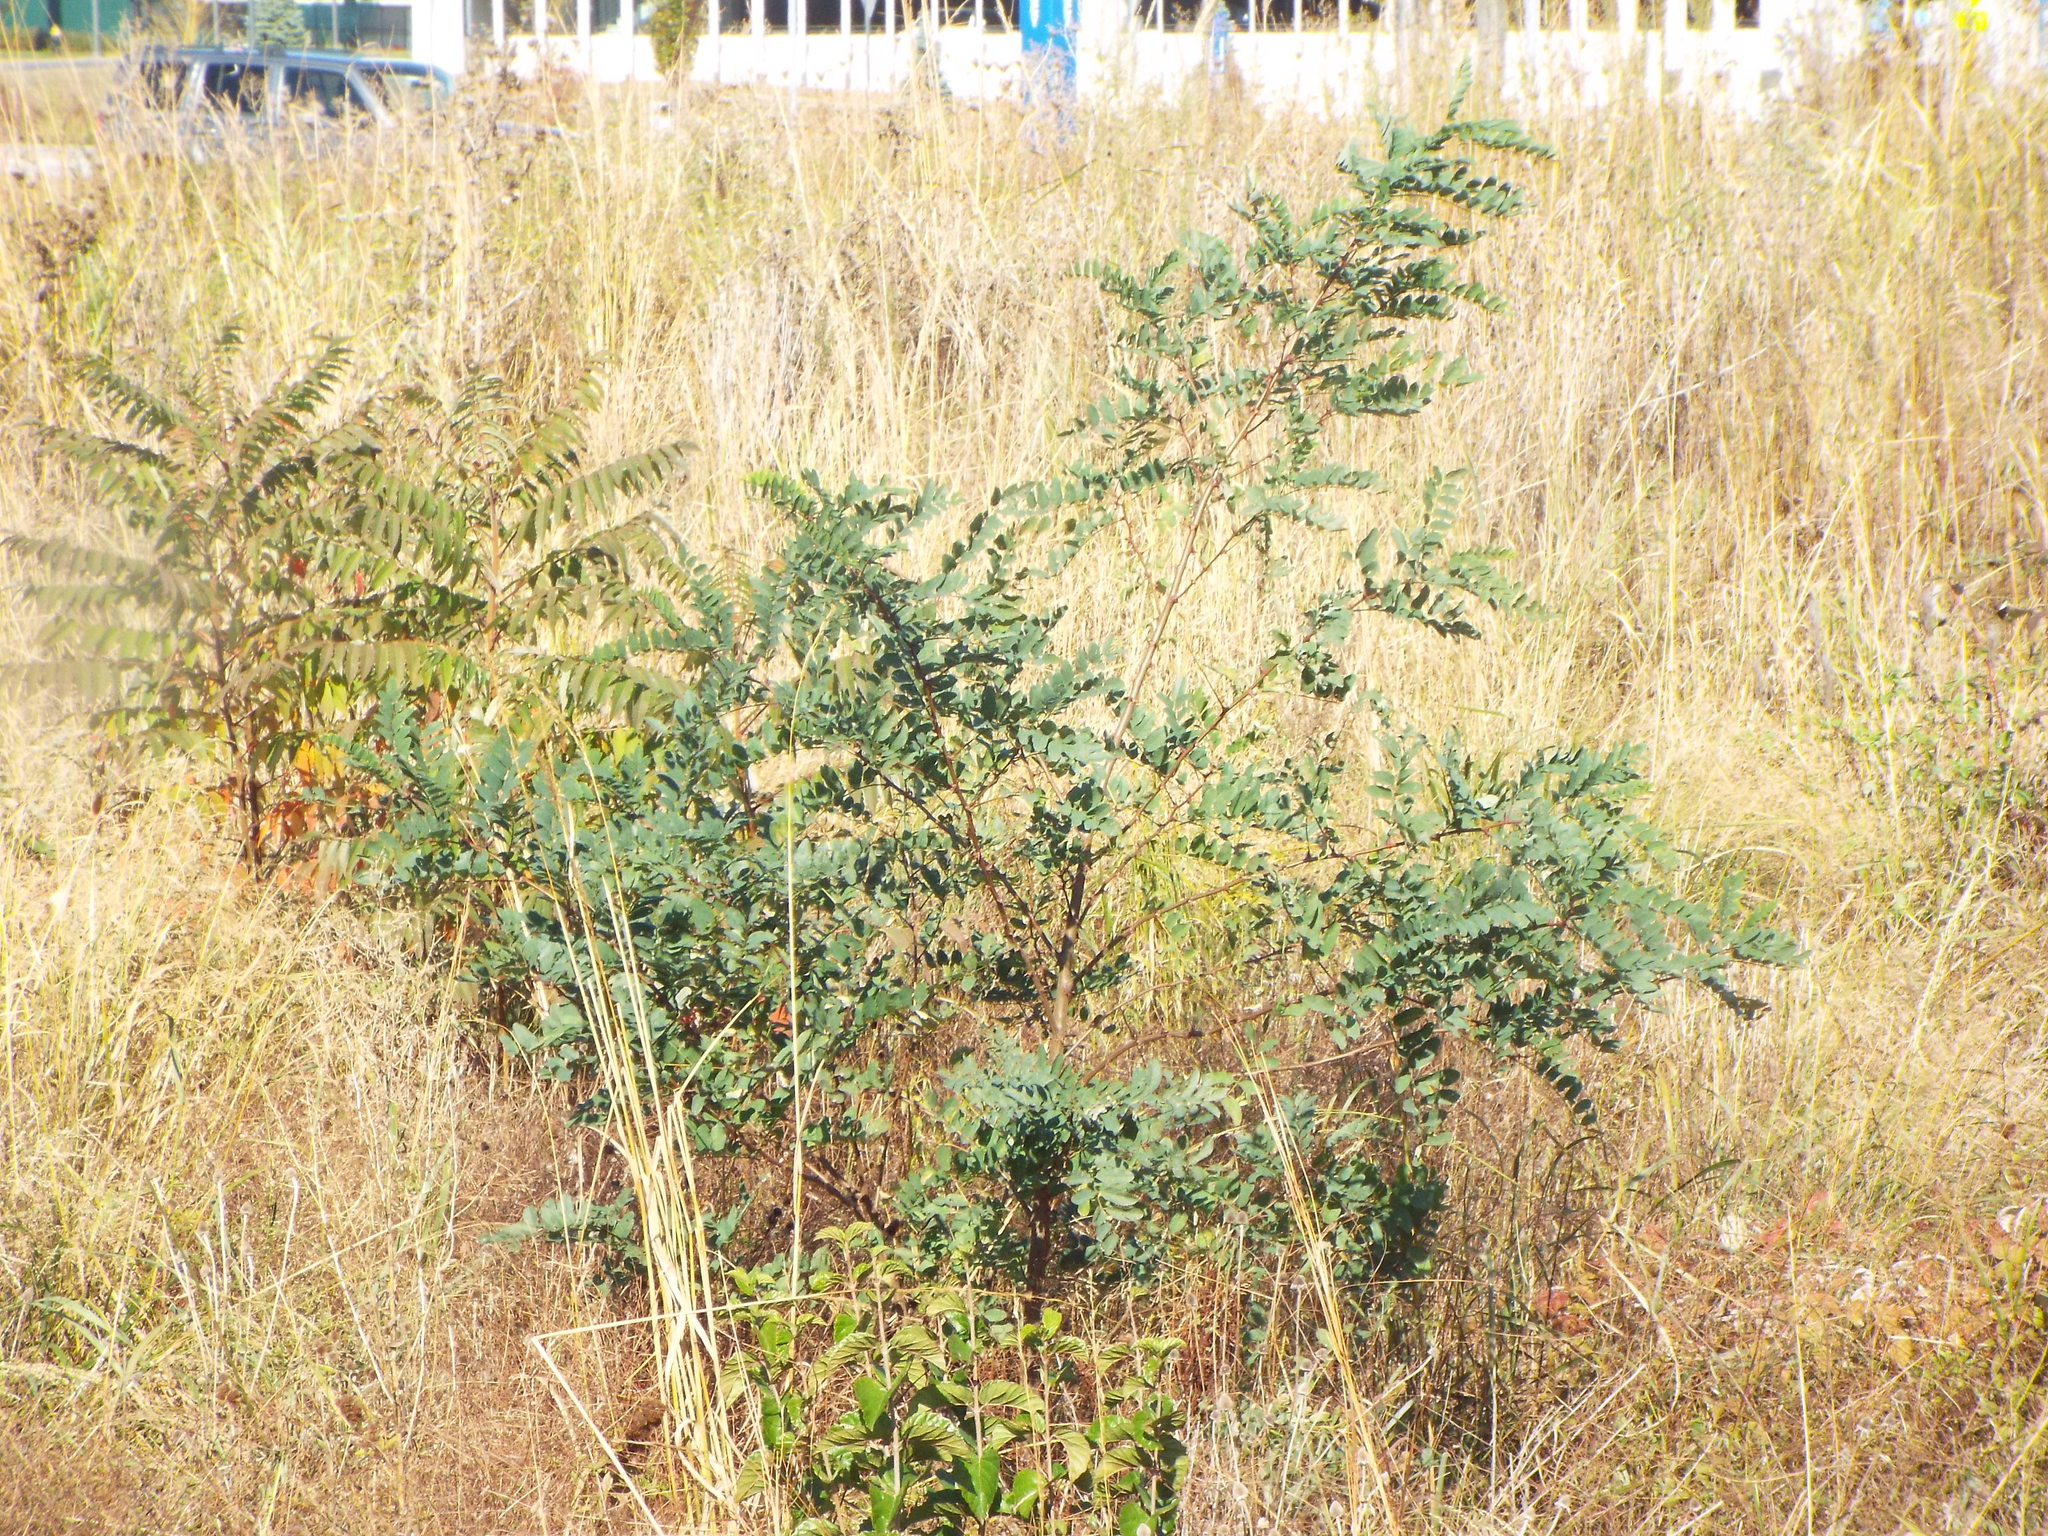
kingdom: Plantae
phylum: Tracheophyta
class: Magnoliopsida
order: Fabales
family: Fabaceae
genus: Robinia
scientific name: Robinia pseudoacacia
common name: Black locust
